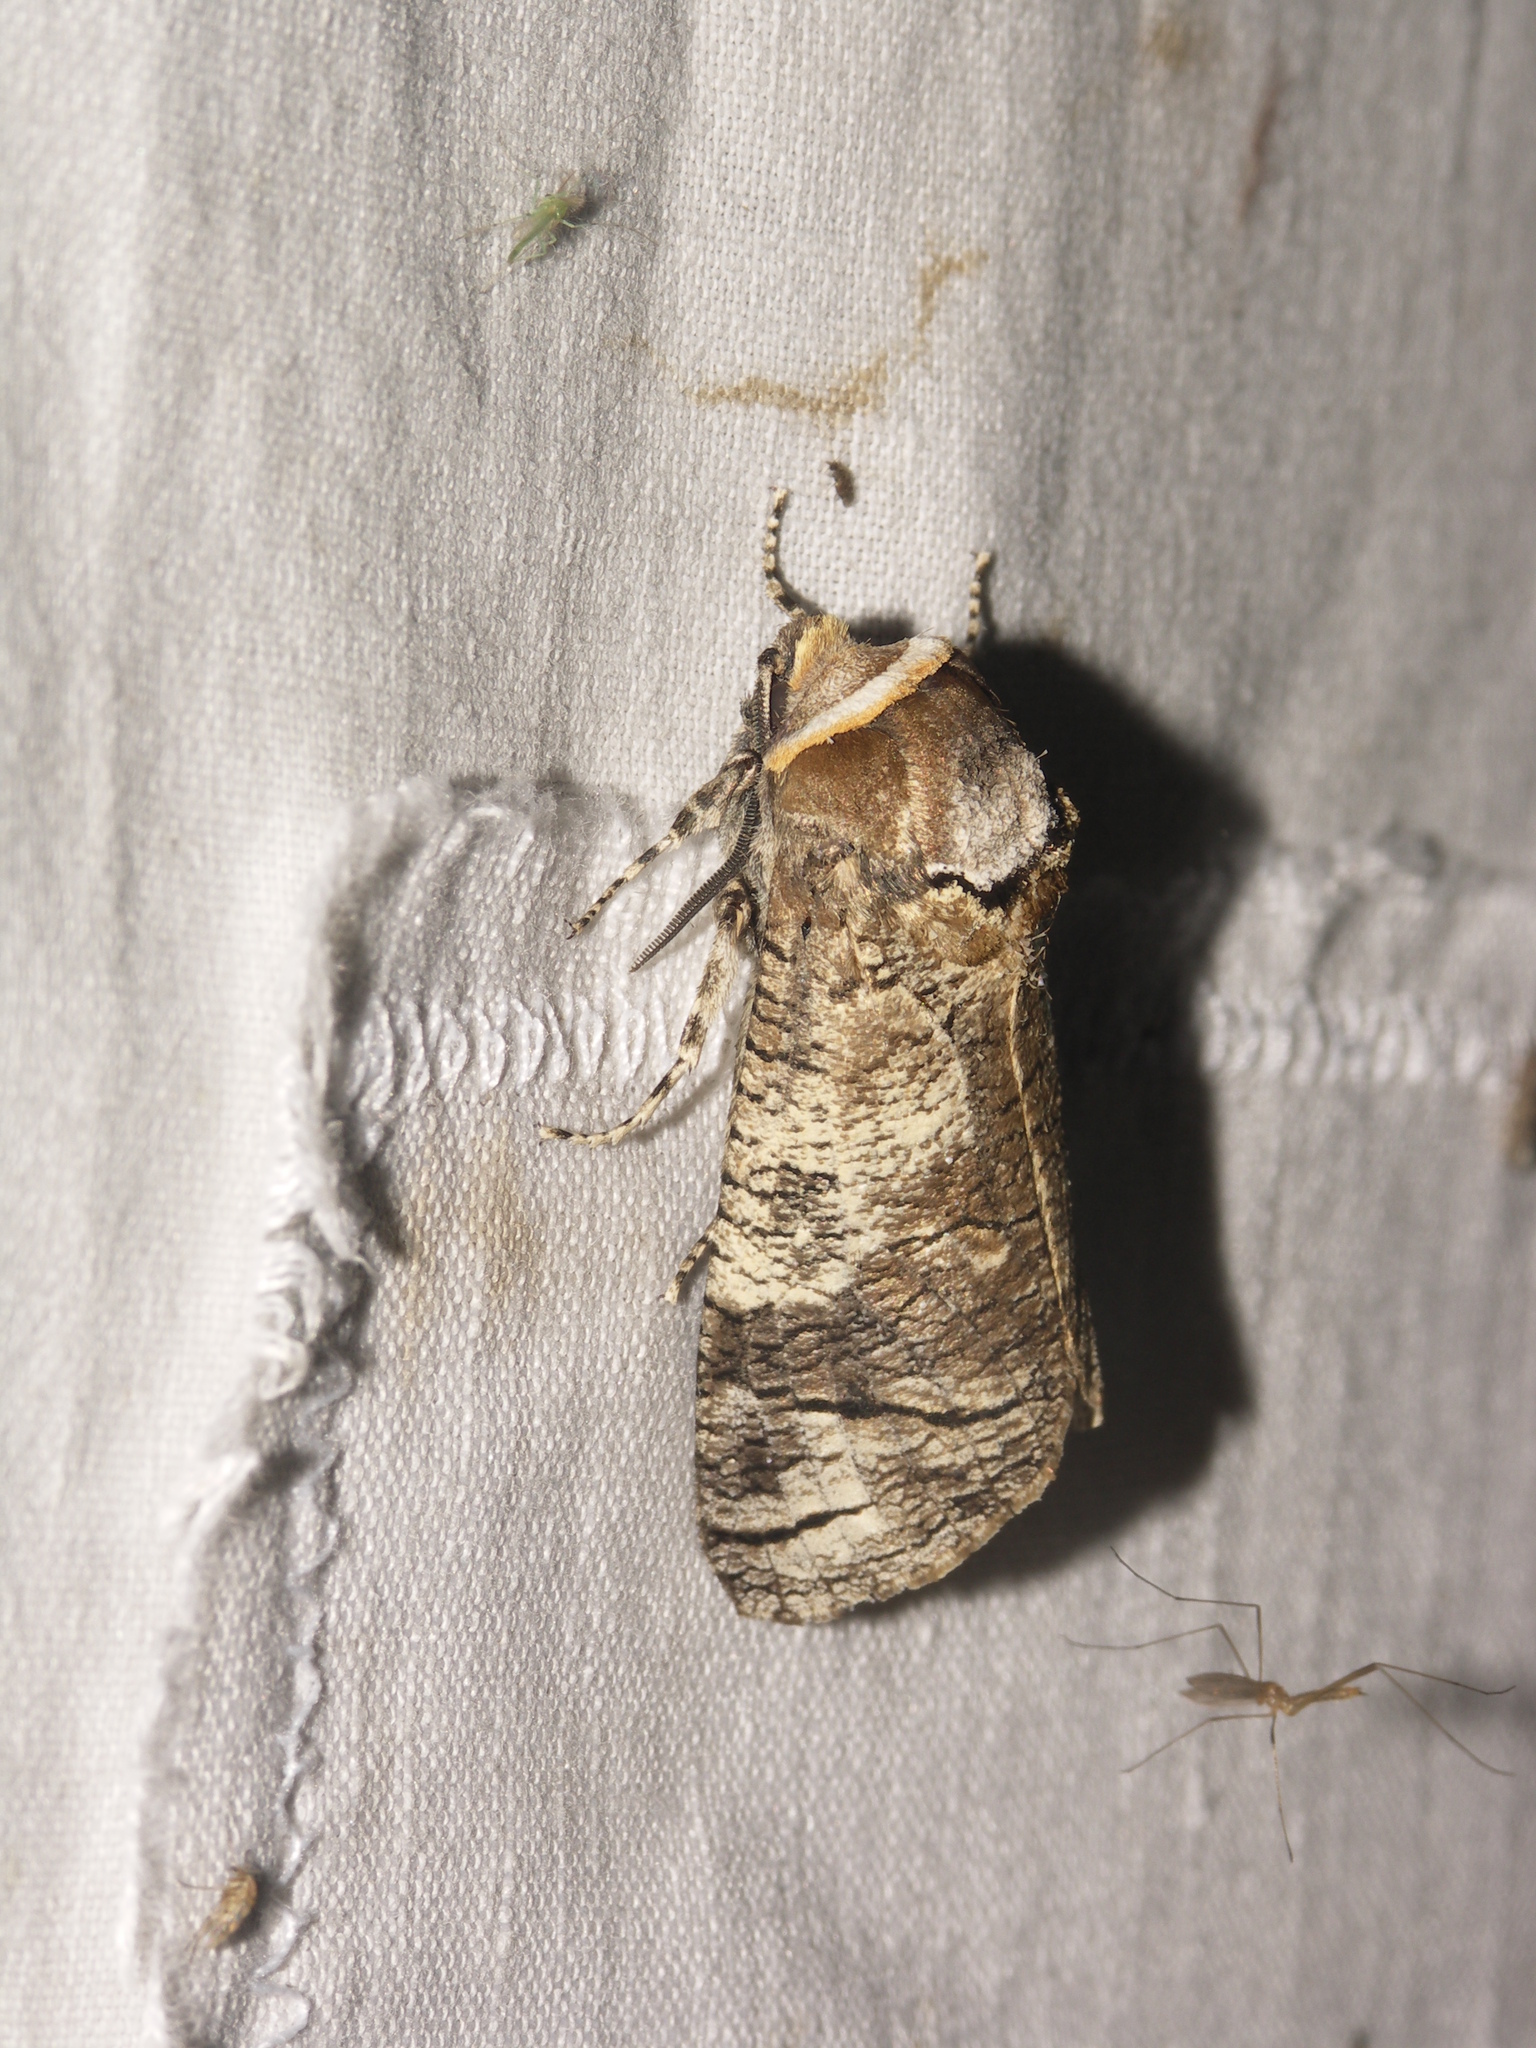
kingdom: Animalia
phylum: Arthropoda
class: Insecta
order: Lepidoptera
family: Cossidae
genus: Cossus
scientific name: Cossus cossus
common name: Goat moth
